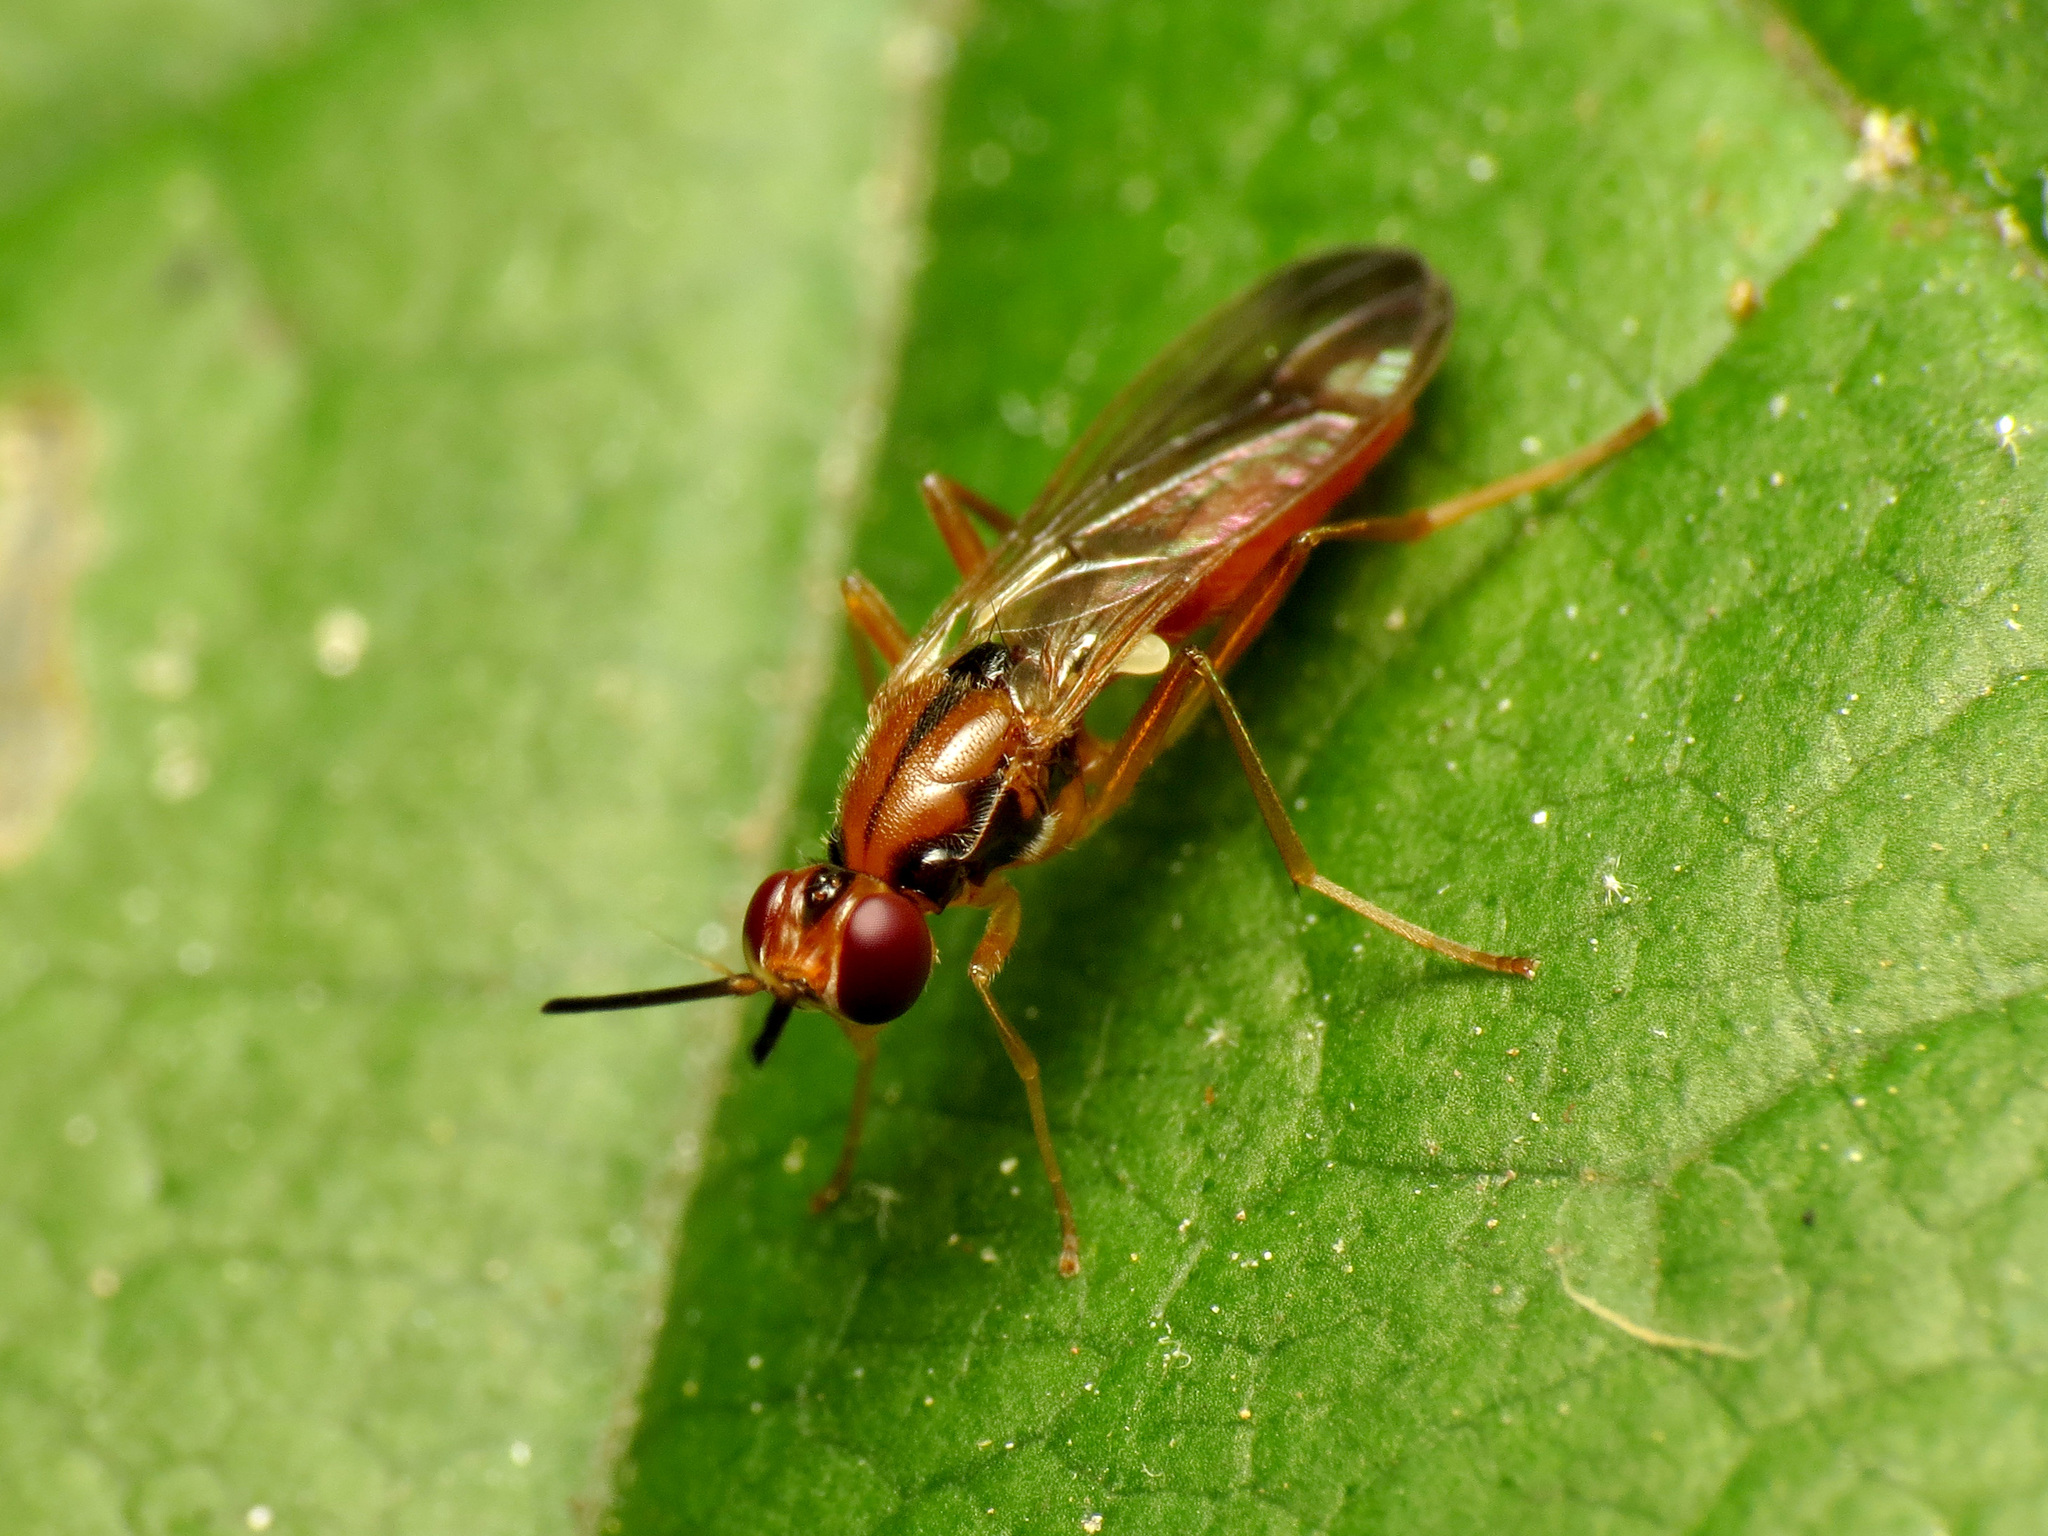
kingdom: Animalia
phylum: Arthropoda
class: Insecta
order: Diptera
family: Psilidae
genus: Loxocera
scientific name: Loxocera cylindrica
